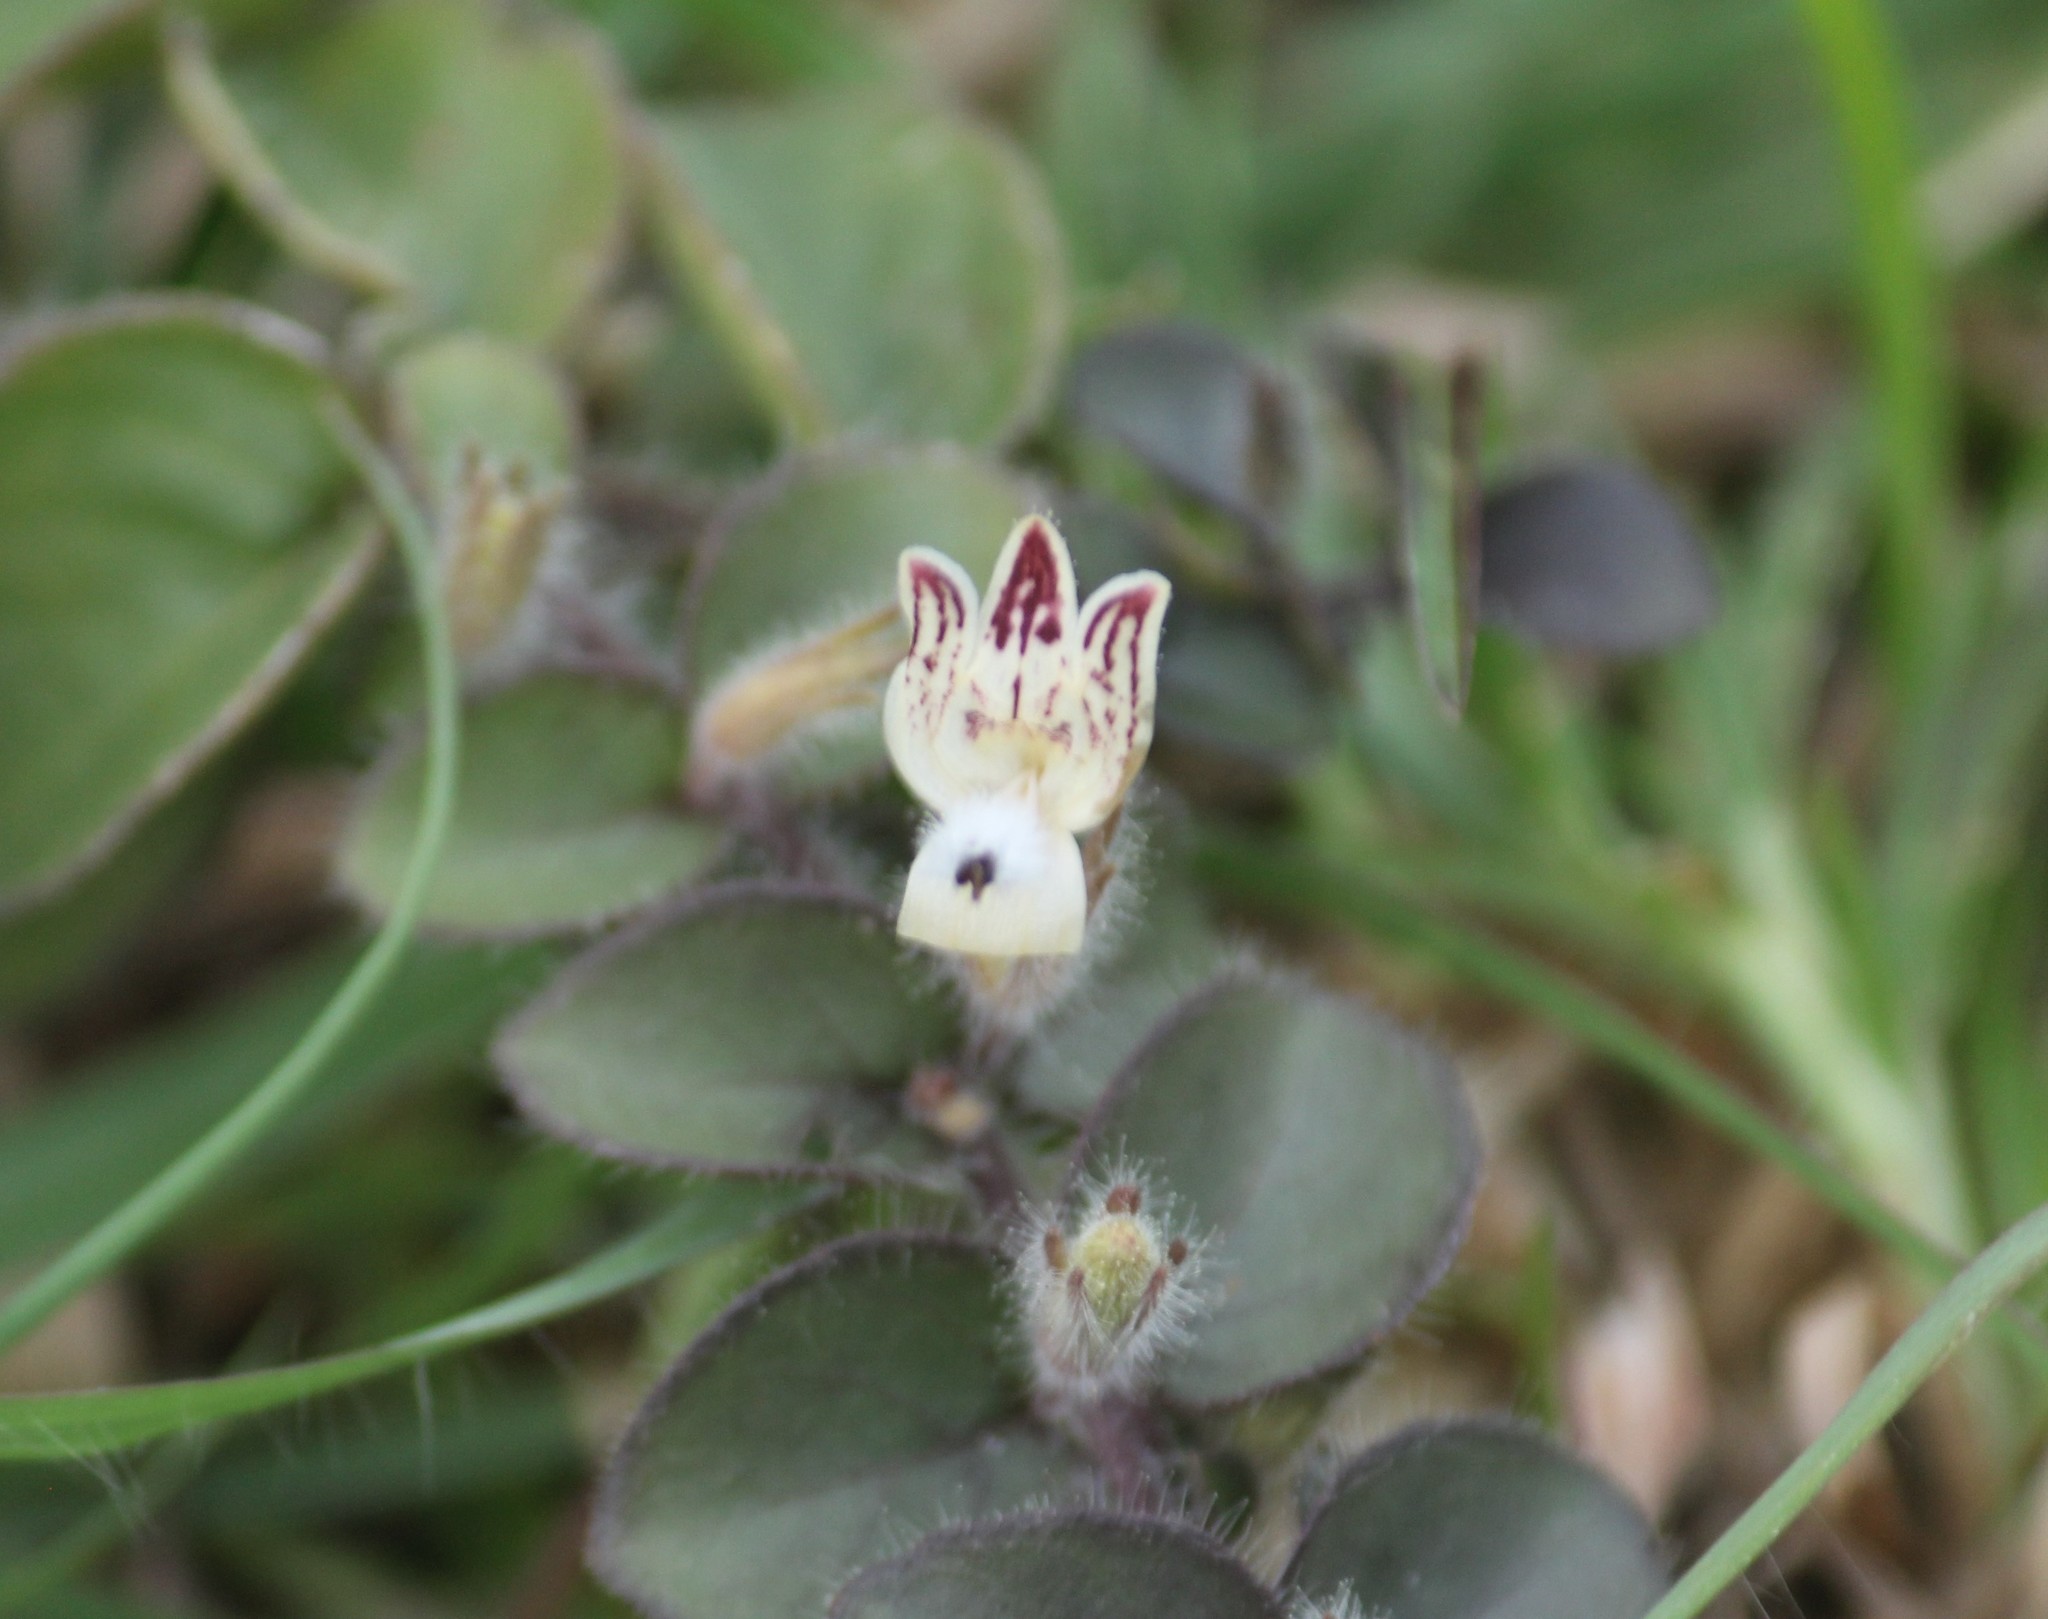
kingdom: Plantae
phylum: Tracheophyta
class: Magnoliopsida
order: Lamiales
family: Acanthaceae
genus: Andrographis
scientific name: Andrographis serpyllifolia
